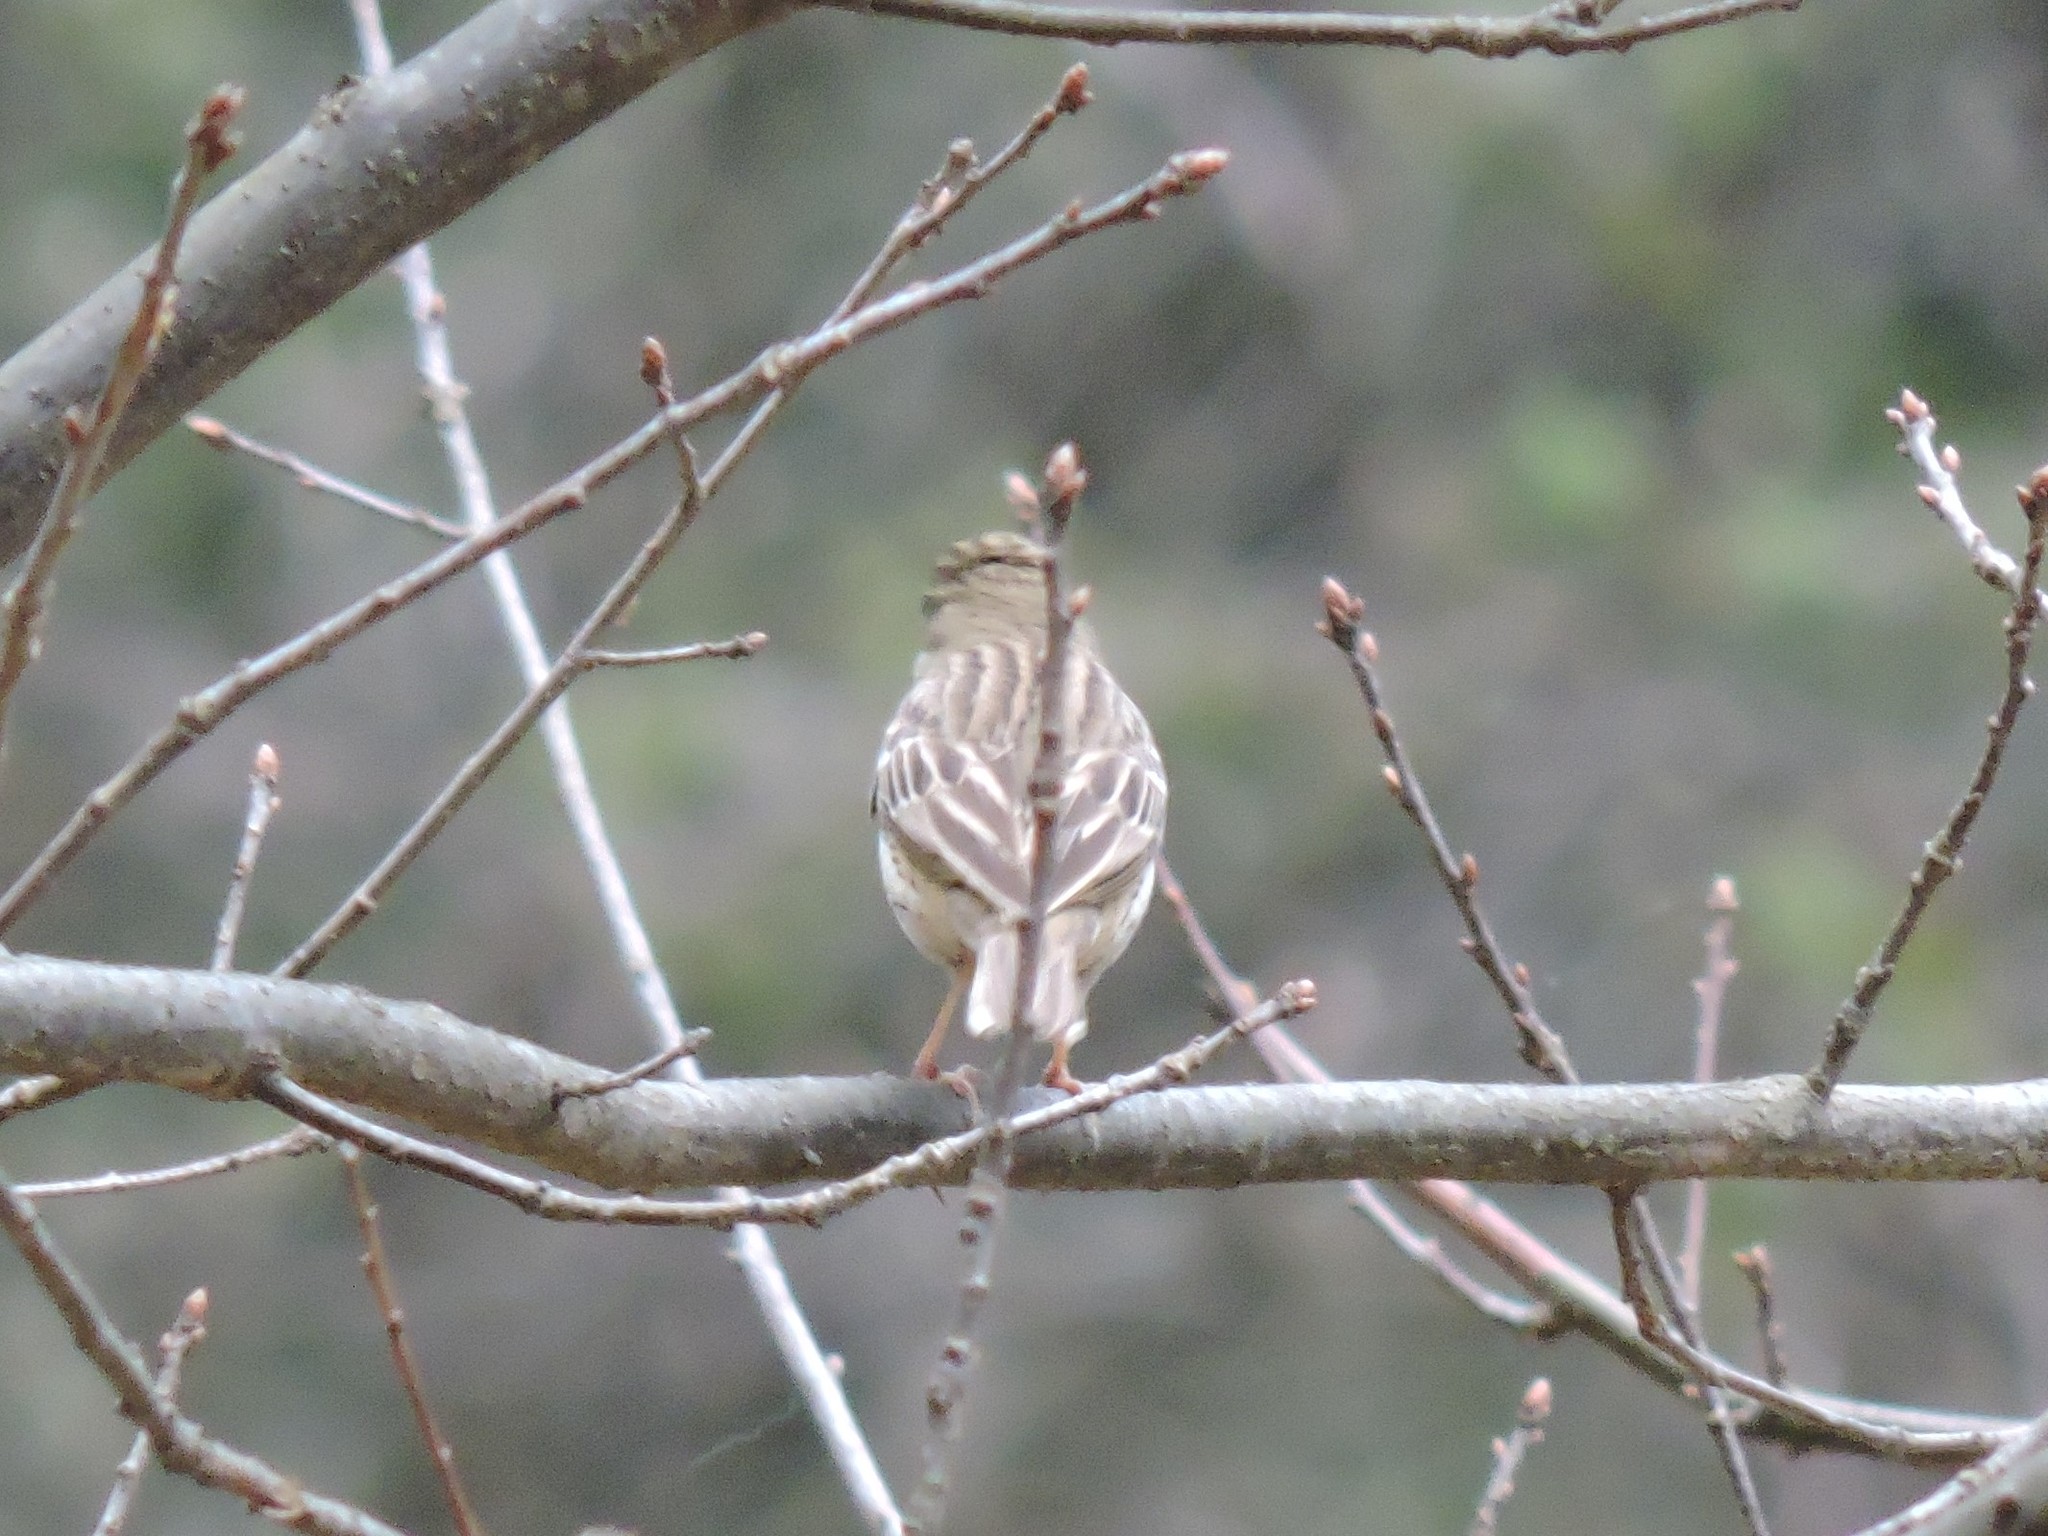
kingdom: Animalia
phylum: Chordata
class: Aves
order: Passeriformes
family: Motacillidae
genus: Anthus
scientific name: Anthus trivialis
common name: Tree pipit
